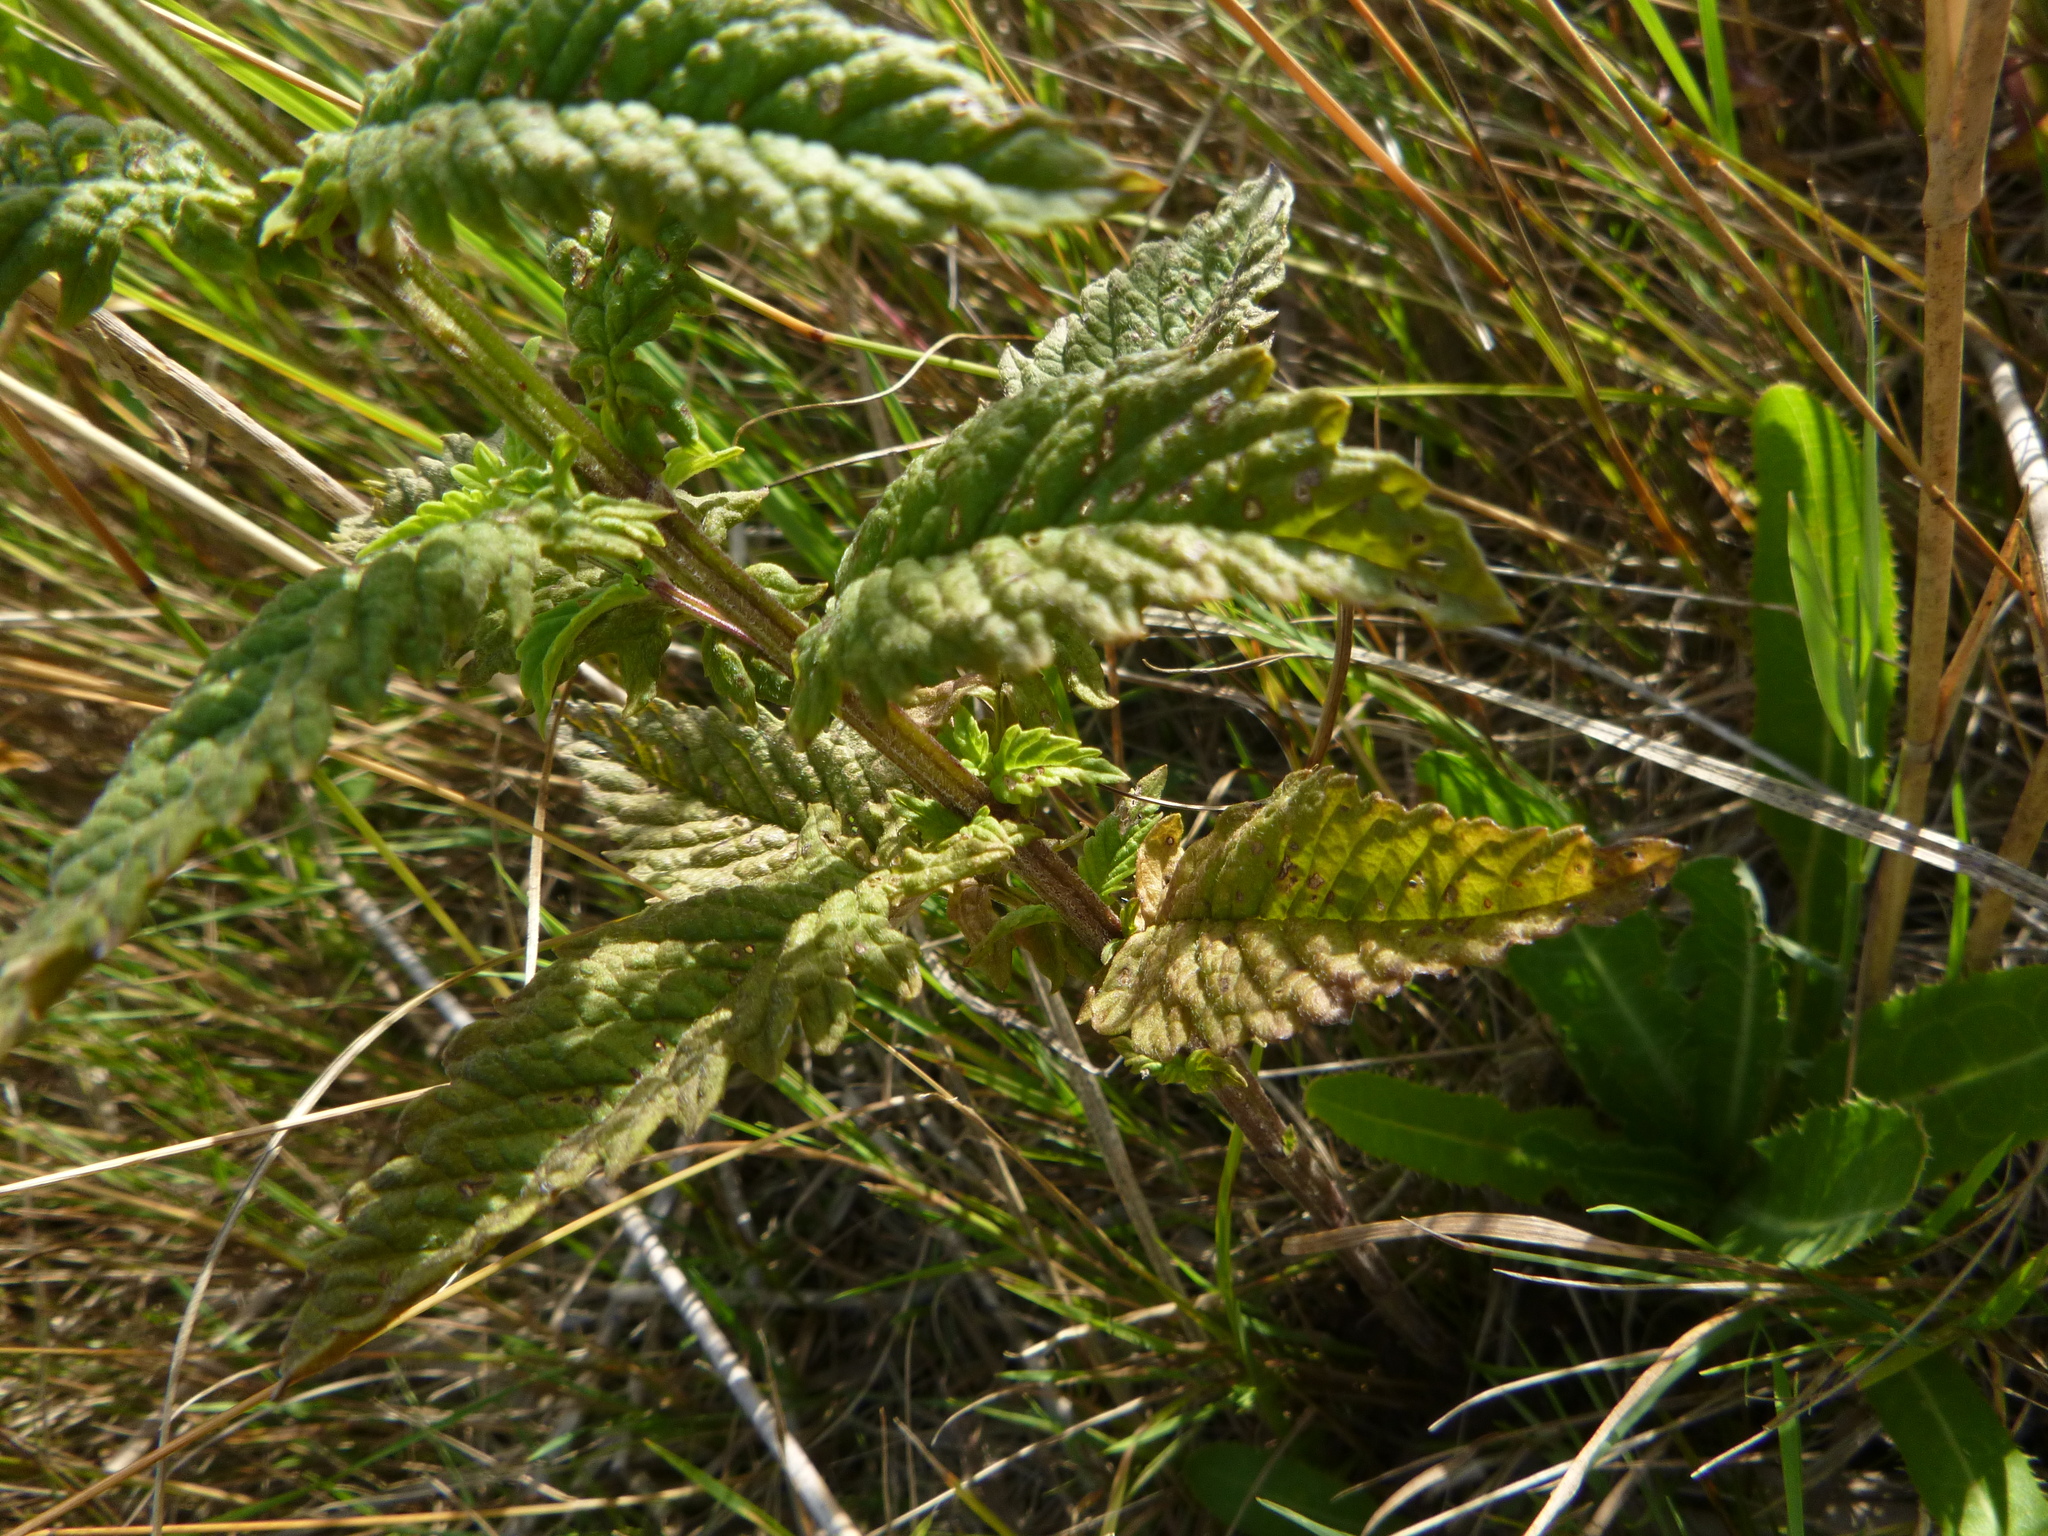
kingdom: Plantae
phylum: Tracheophyta
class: Magnoliopsida
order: Lamiales
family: Lamiaceae
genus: Lycopus
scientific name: Lycopus europaeus
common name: European bugleweed
